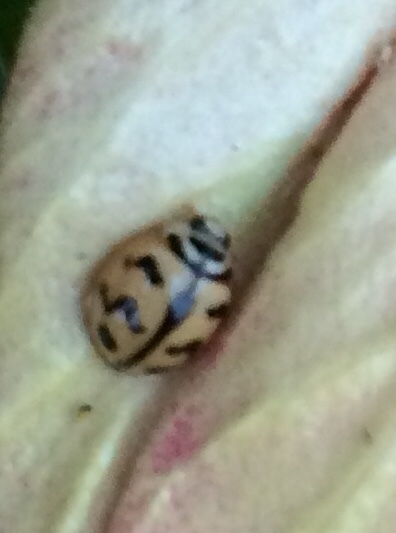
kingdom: Animalia
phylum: Arthropoda
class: Insecta
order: Coleoptera
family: Coccinellidae
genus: Cheilomenes
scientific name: Cheilomenes sexmaculata
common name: Ladybird beetle
